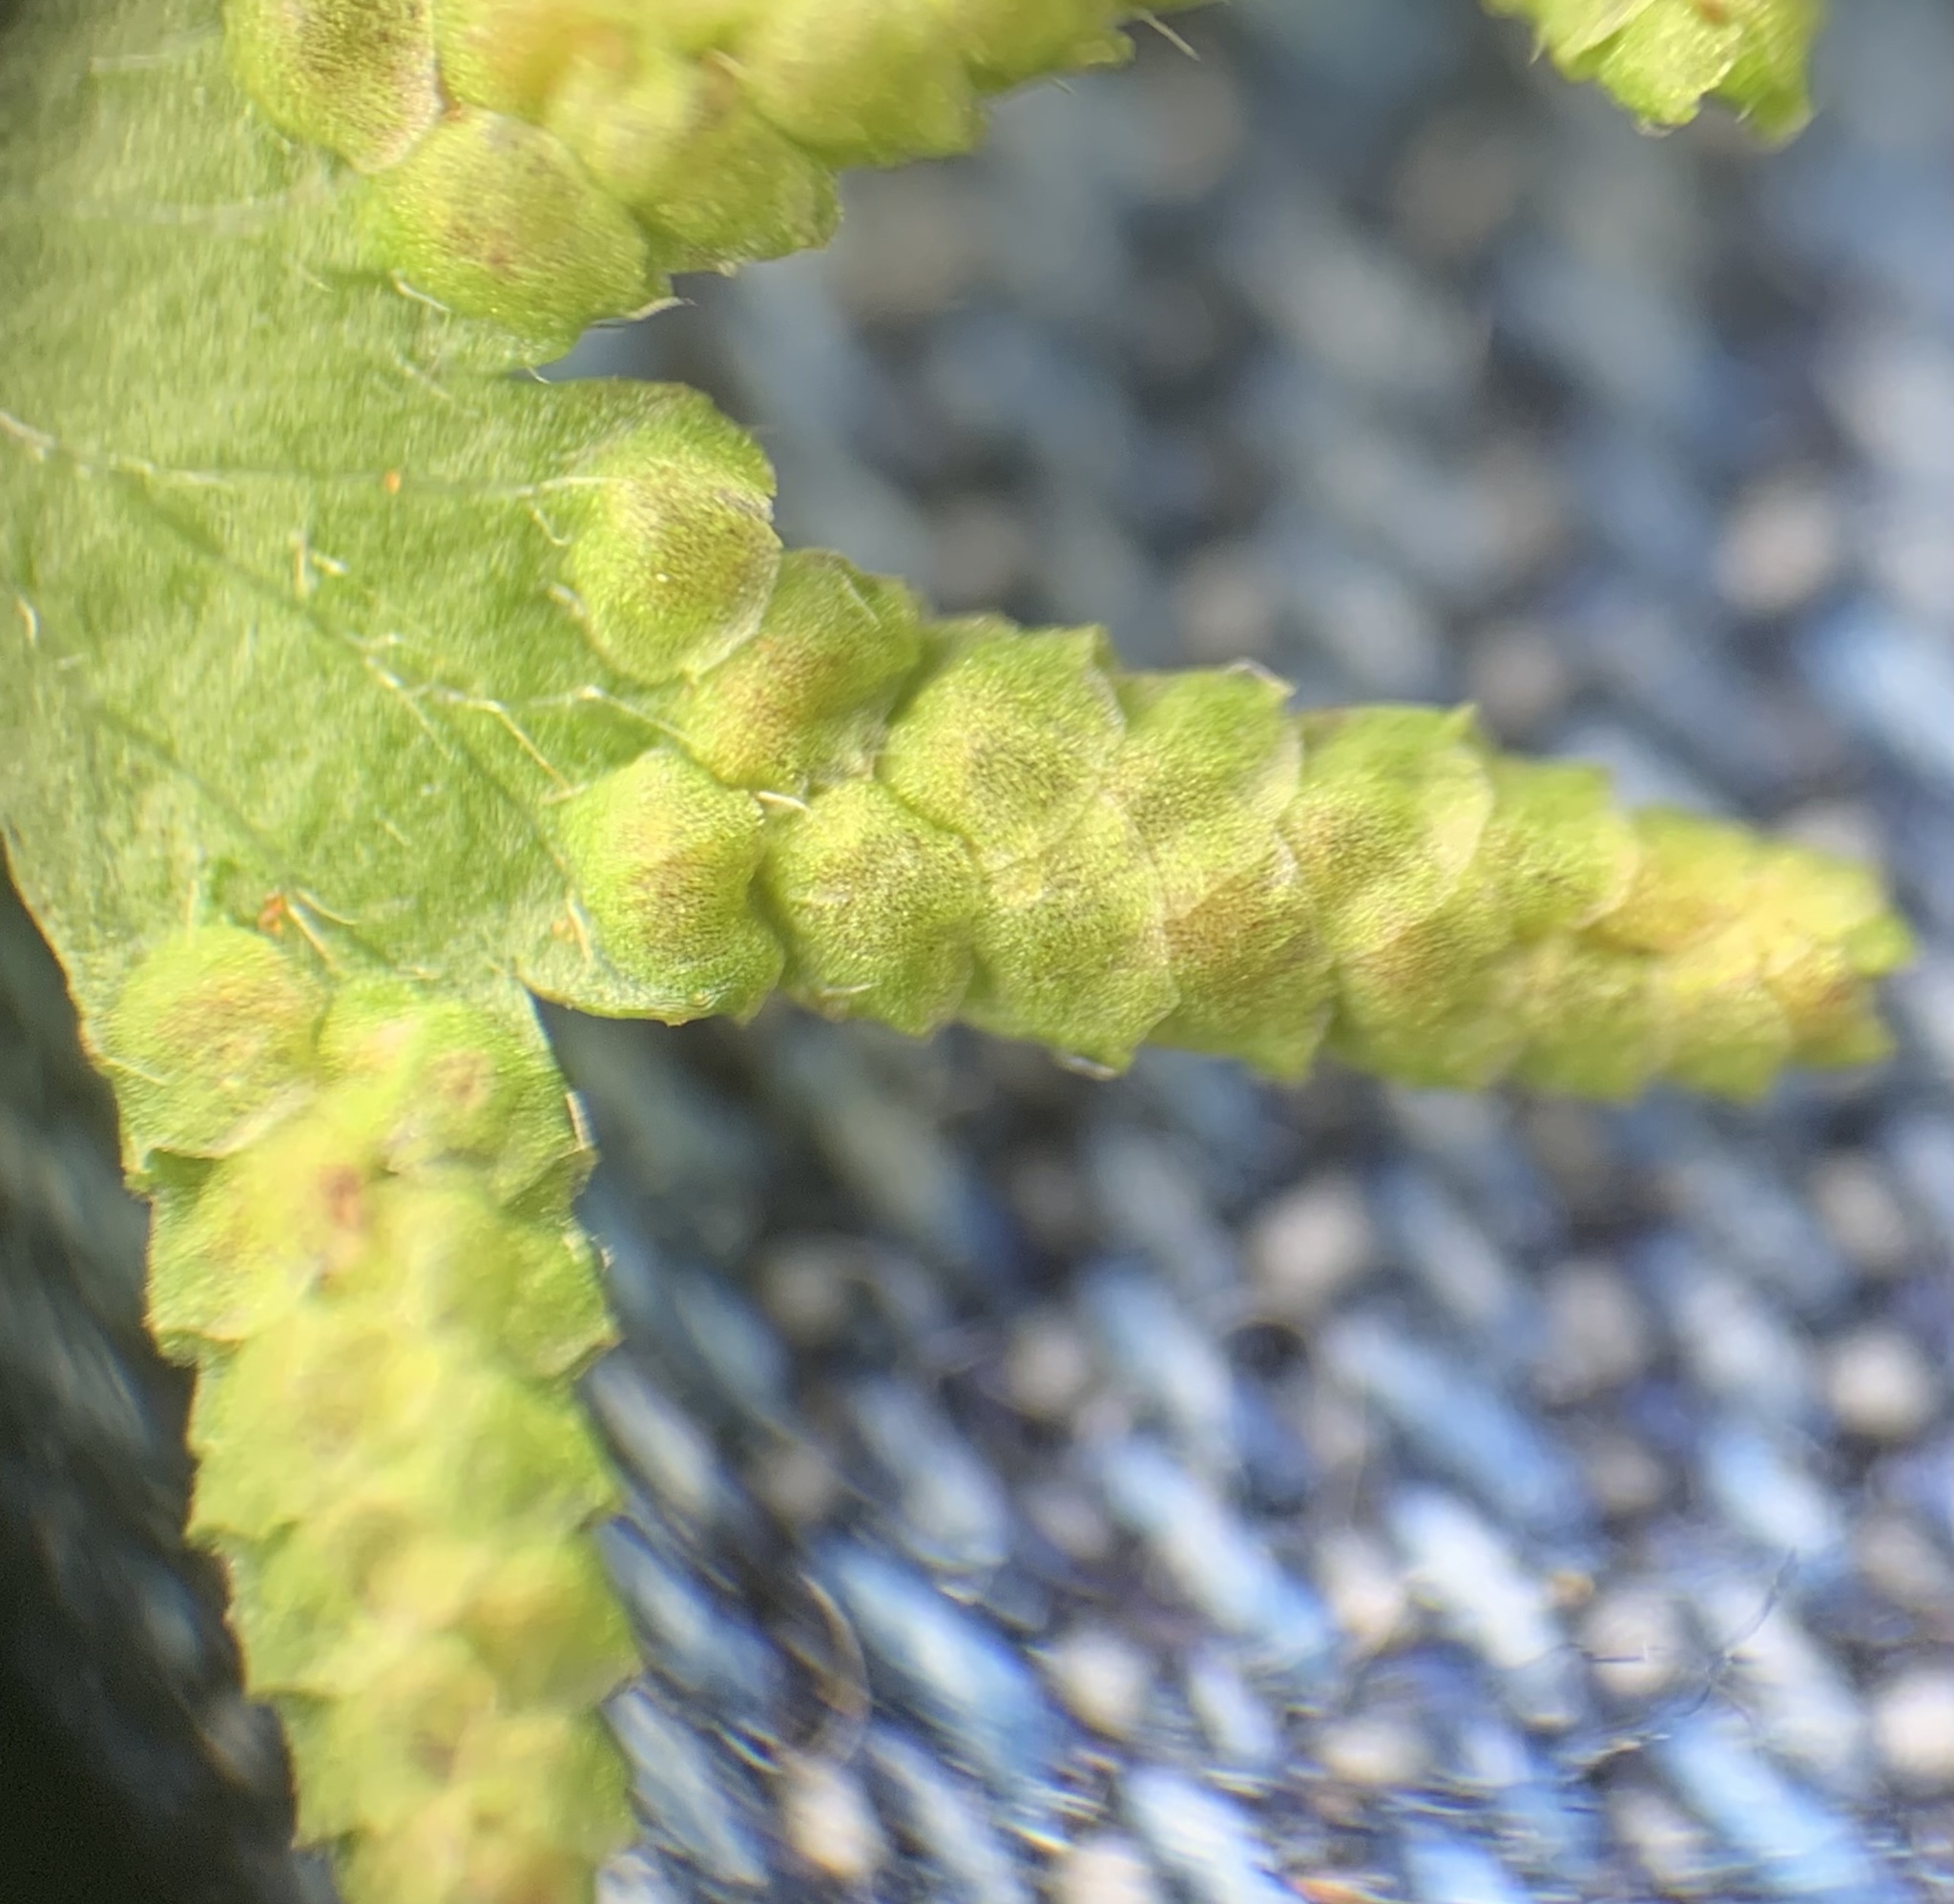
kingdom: Plantae
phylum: Tracheophyta
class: Polypodiopsida
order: Schizaeales
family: Lygodiaceae
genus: Lygodium
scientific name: Lygodium japonicum
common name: Japanese climbing fern
